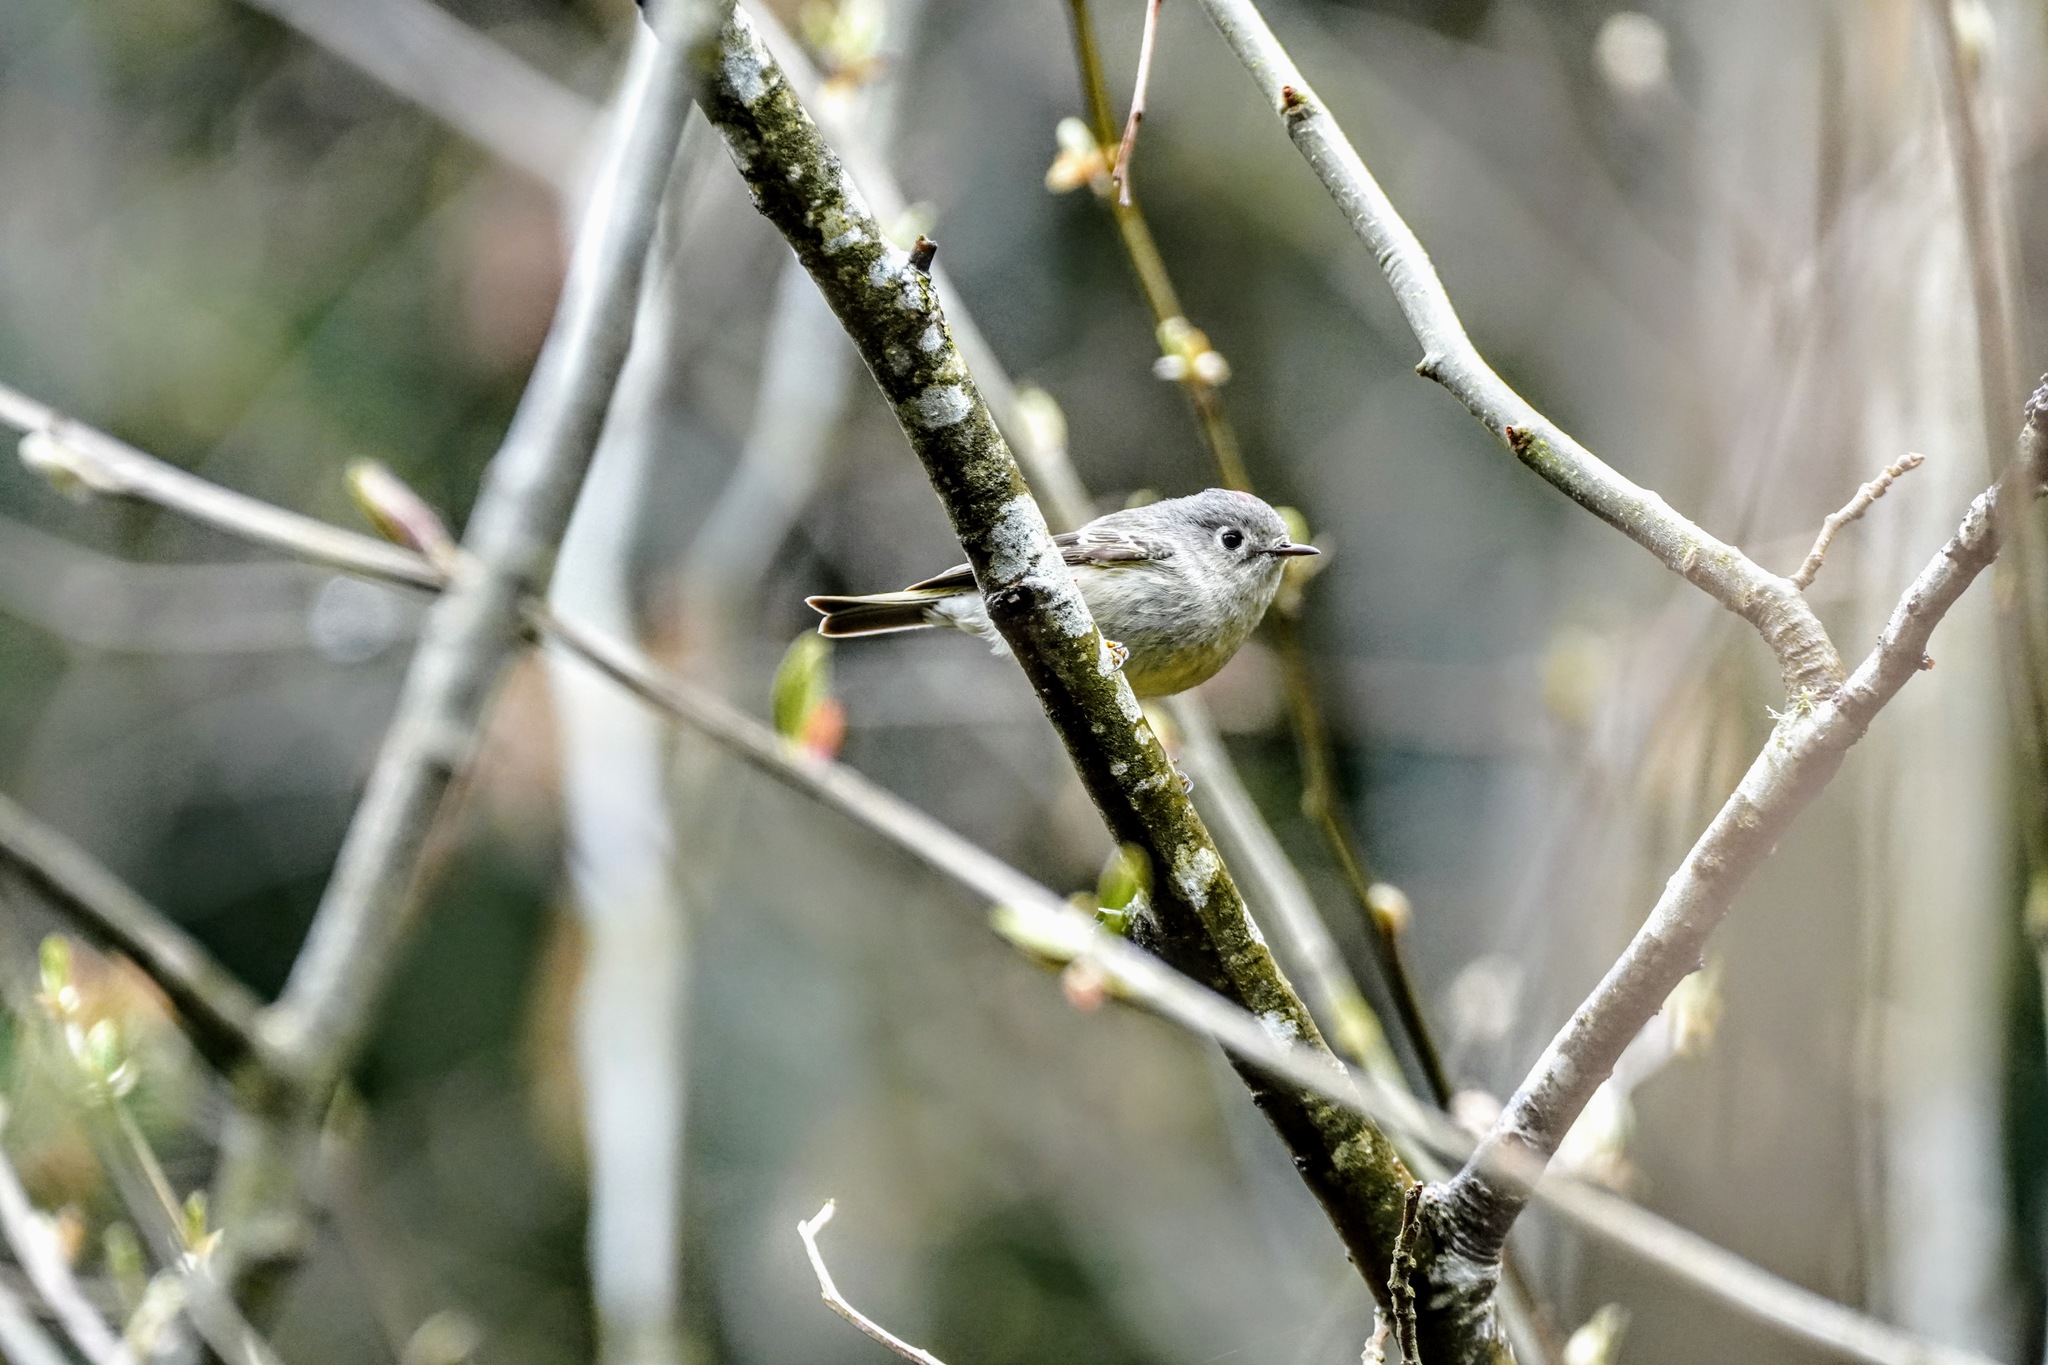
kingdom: Animalia
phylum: Chordata
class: Aves
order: Passeriformes
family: Regulidae
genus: Regulus
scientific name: Regulus calendula
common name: Ruby-crowned kinglet
